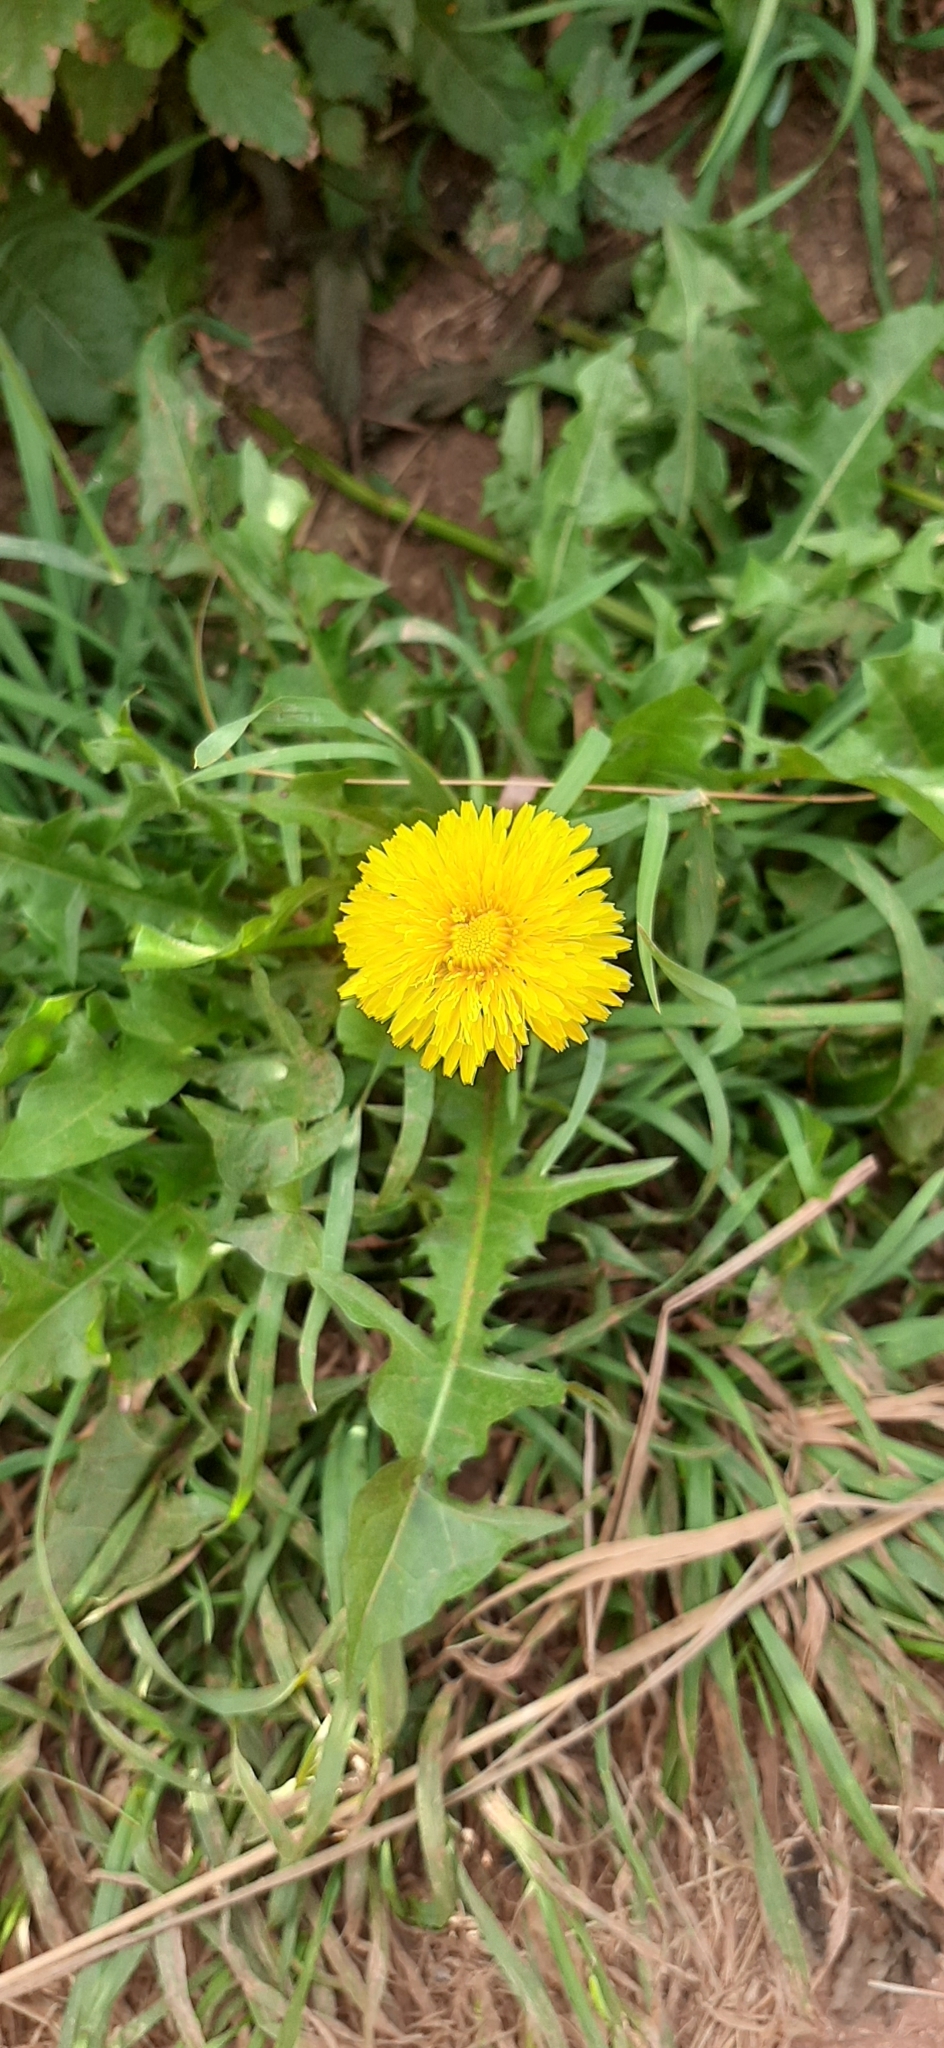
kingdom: Plantae
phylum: Tracheophyta
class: Magnoliopsida
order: Asterales
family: Asteraceae
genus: Taraxacum
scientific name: Taraxacum officinale
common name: Common dandelion
